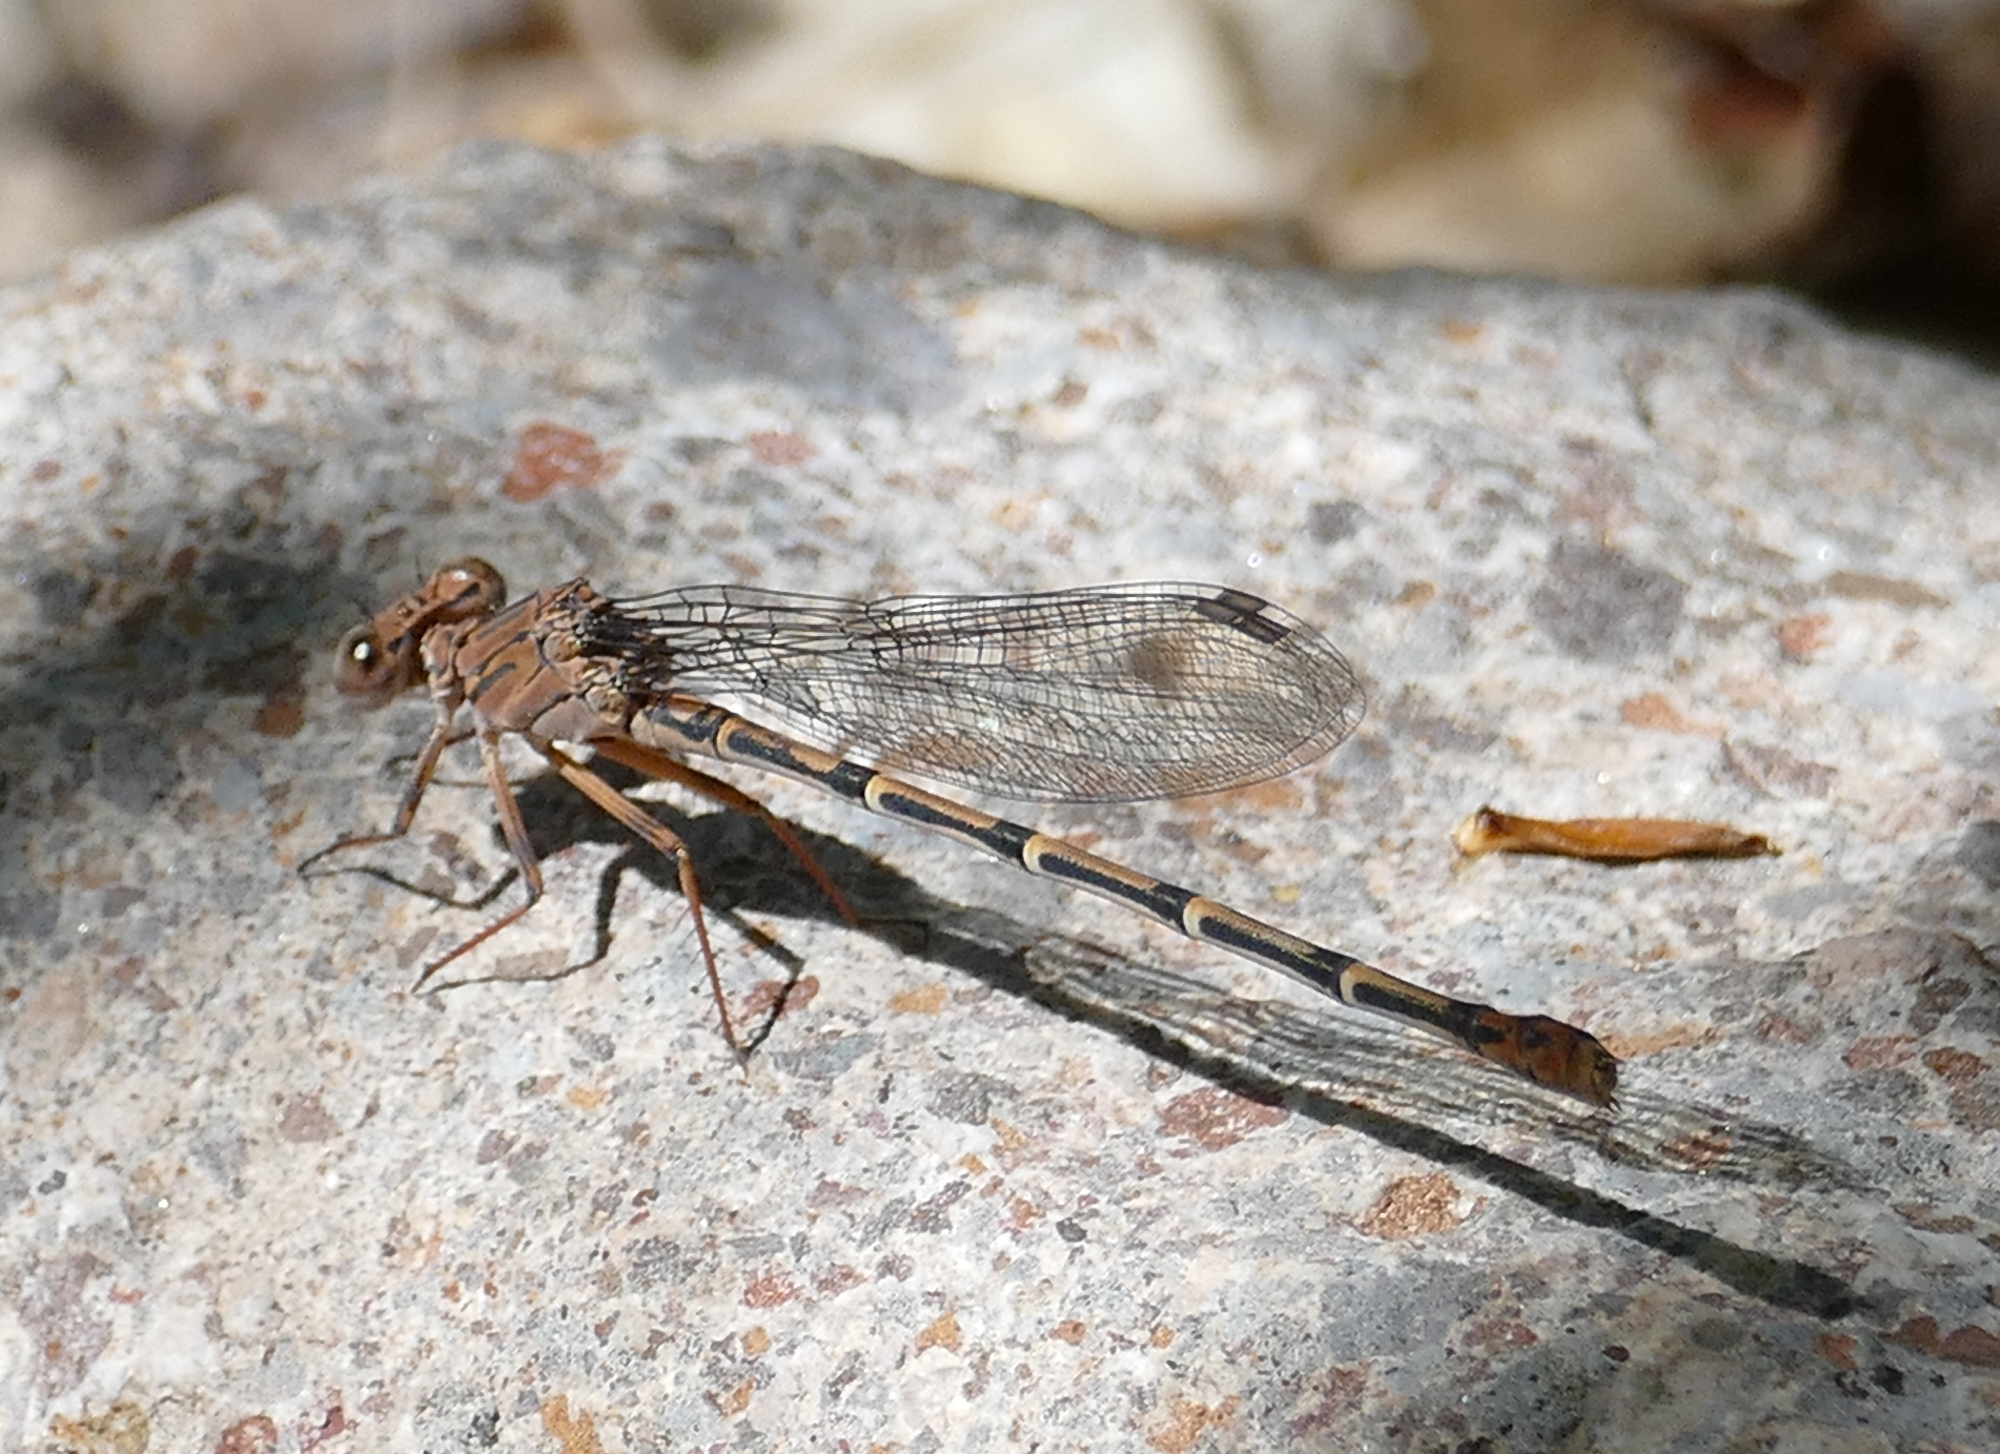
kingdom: Animalia
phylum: Arthropoda
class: Insecta
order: Odonata
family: Coenagrionidae
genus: Argia
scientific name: Argia lugens
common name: Sooty dancer
